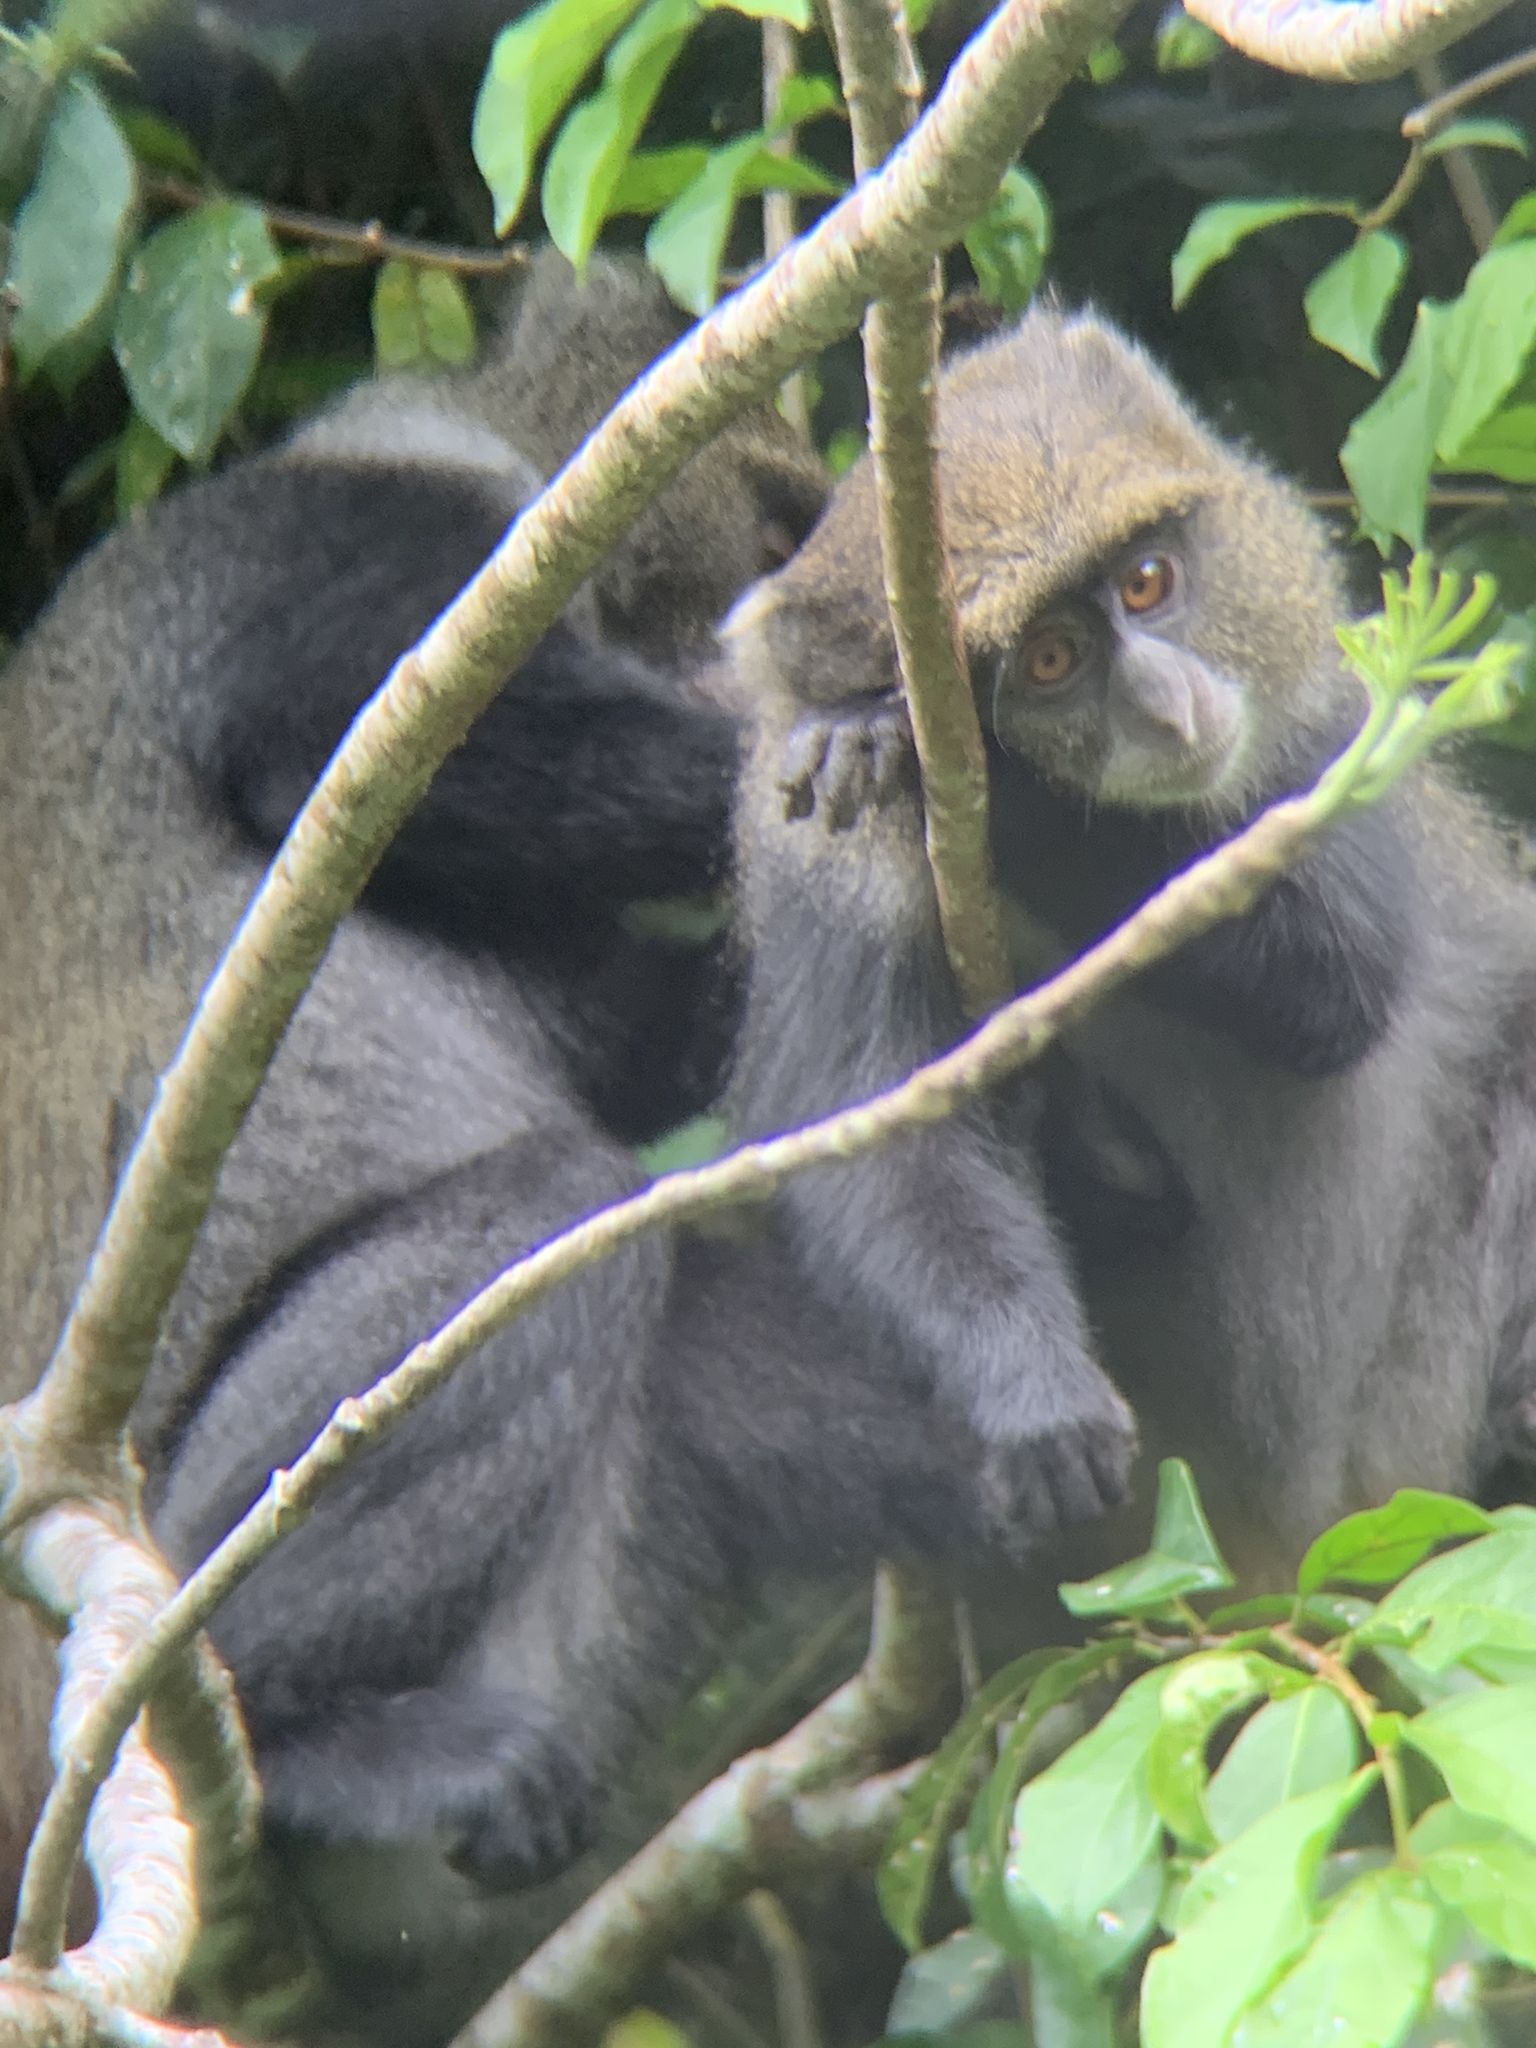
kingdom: Animalia
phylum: Chordata
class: Mammalia
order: Primates
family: Cercopithecidae
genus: Cercopithecus
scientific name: Cercopithecus mitis
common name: Blue monkey
